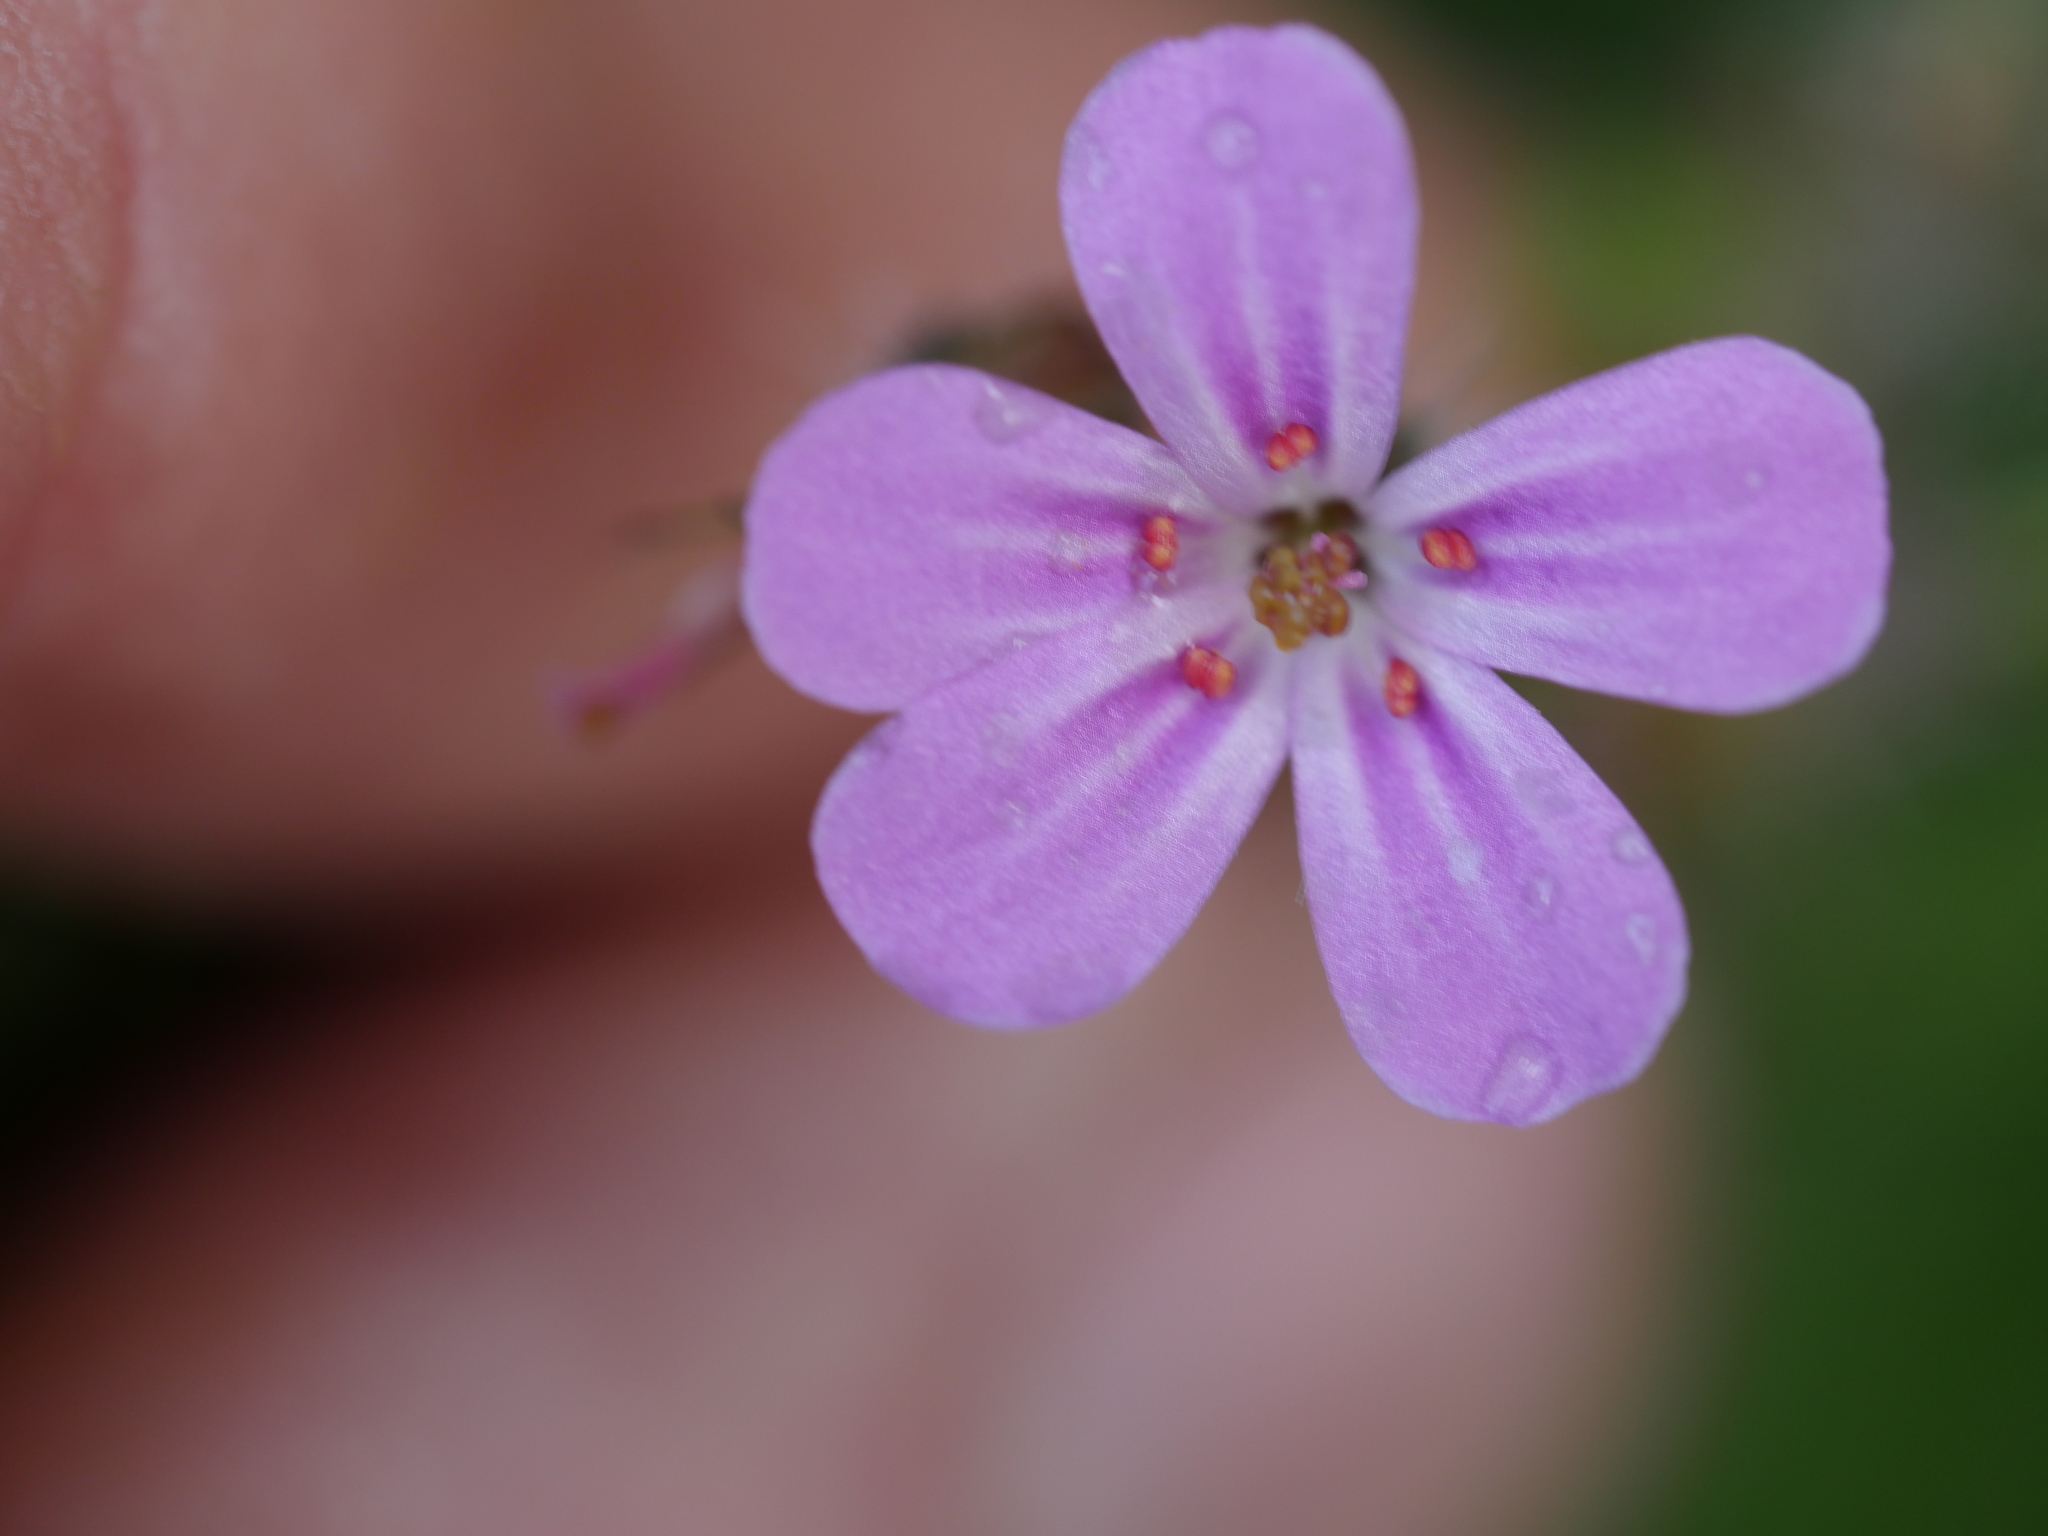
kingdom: Plantae
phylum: Tracheophyta
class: Magnoliopsida
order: Geraniales
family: Geraniaceae
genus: Geranium
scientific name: Geranium robertianum
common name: Herb-robert
